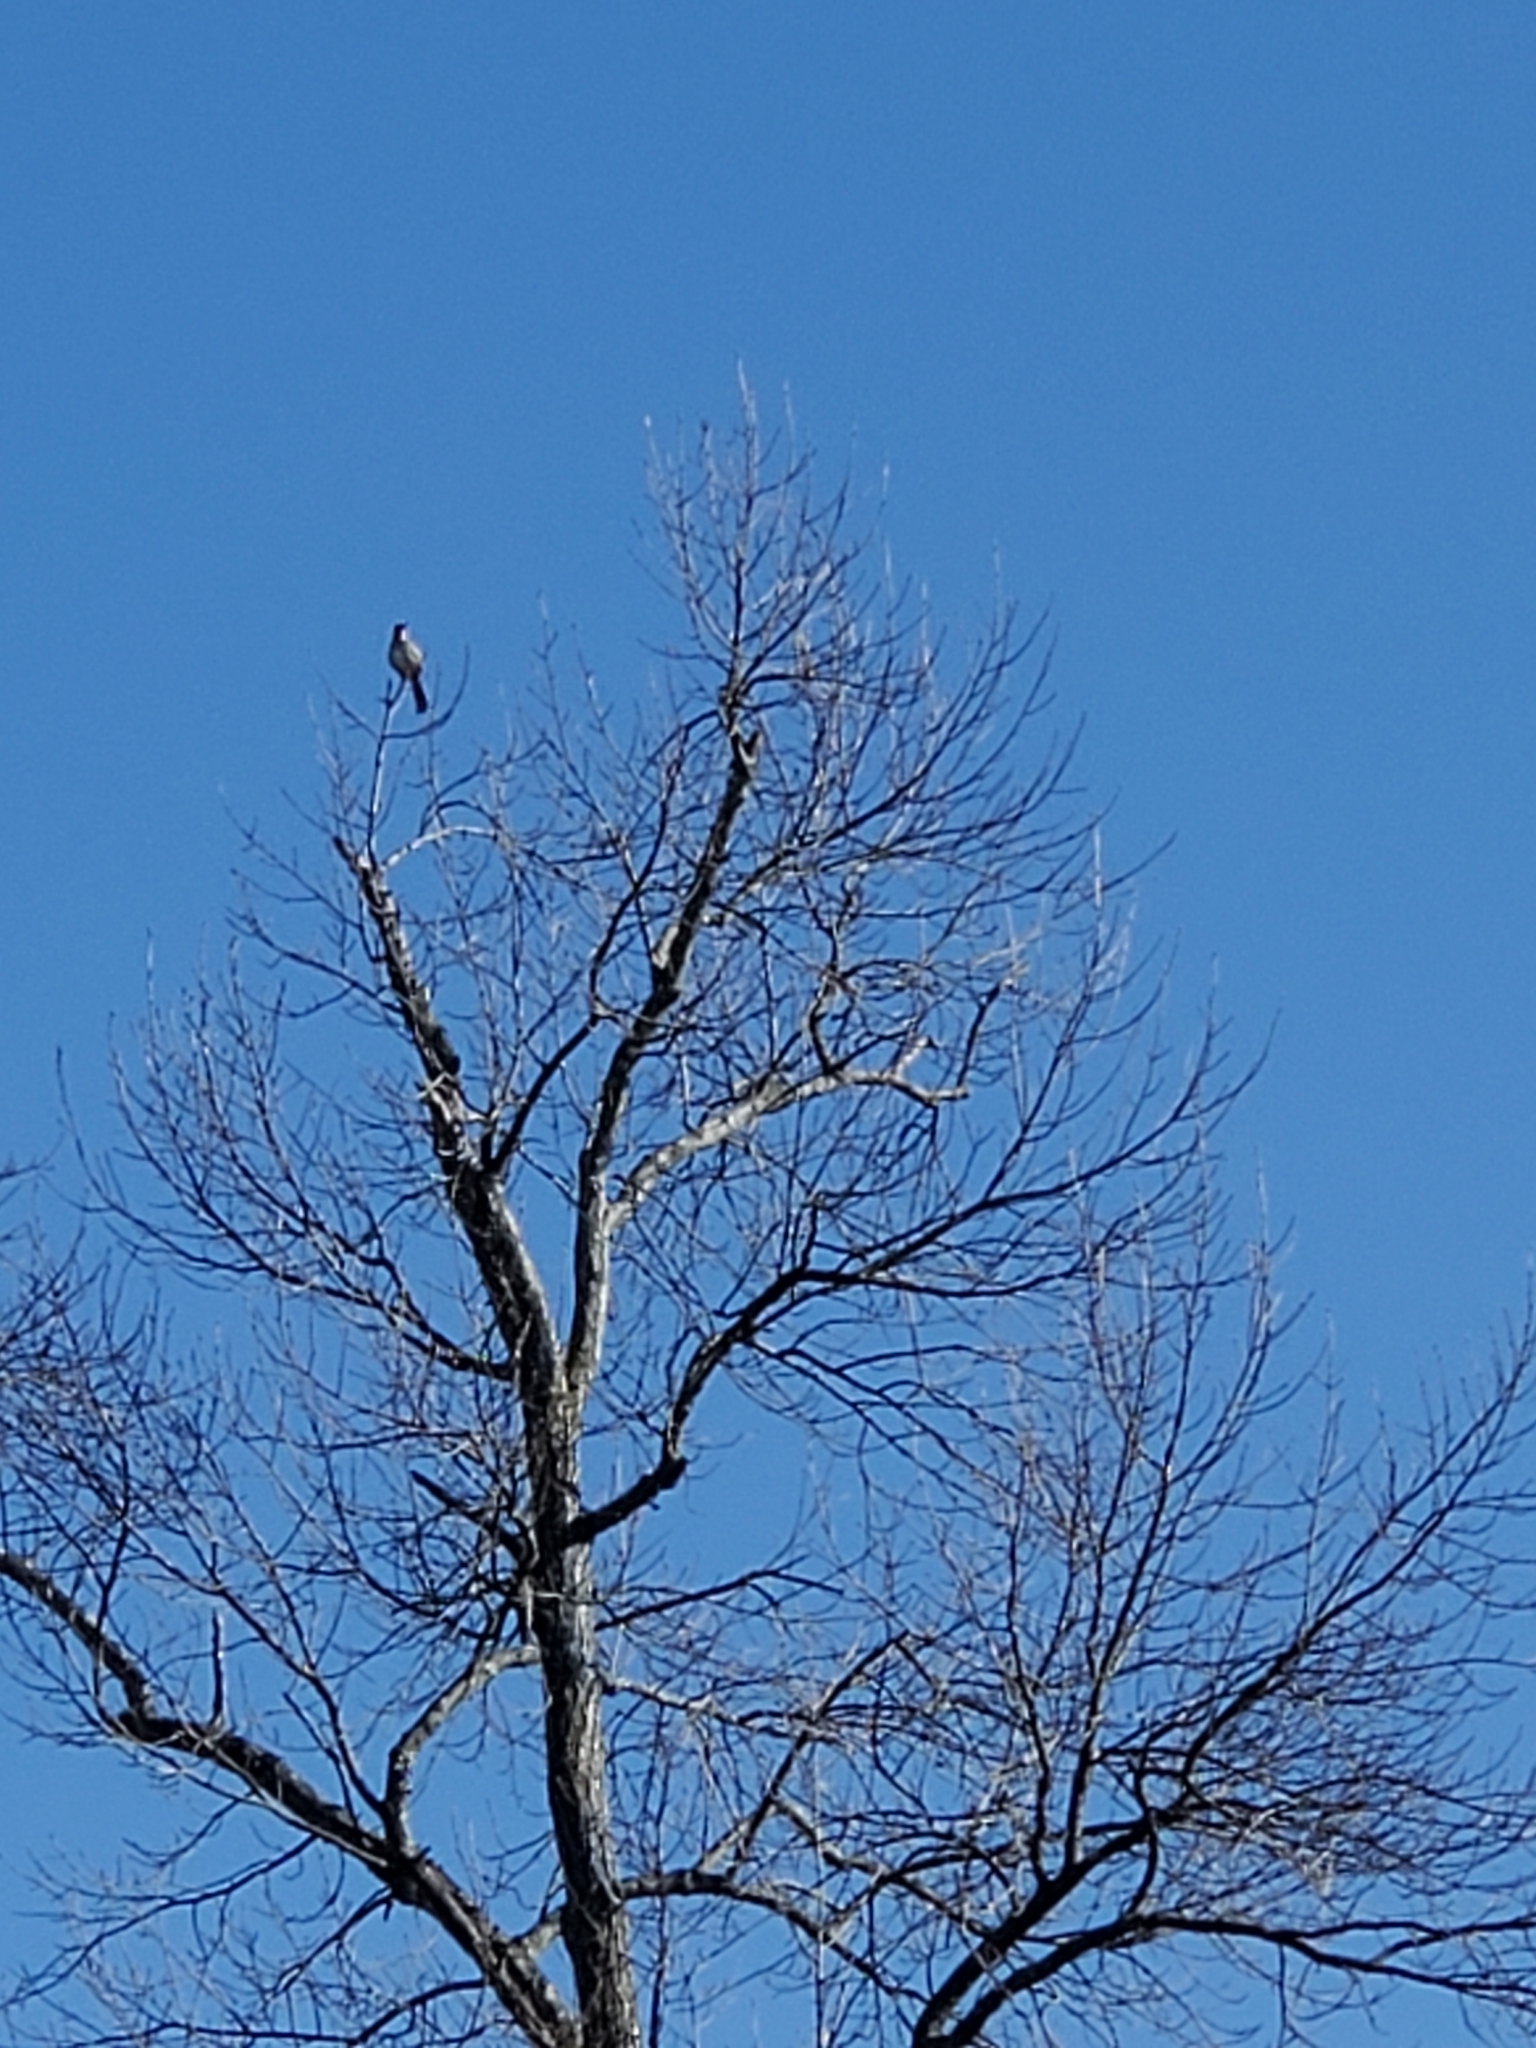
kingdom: Animalia
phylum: Chordata
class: Aves
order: Passeriformes
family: Mimidae
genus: Toxostoma
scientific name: Toxostoma rufum
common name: Brown thrasher
